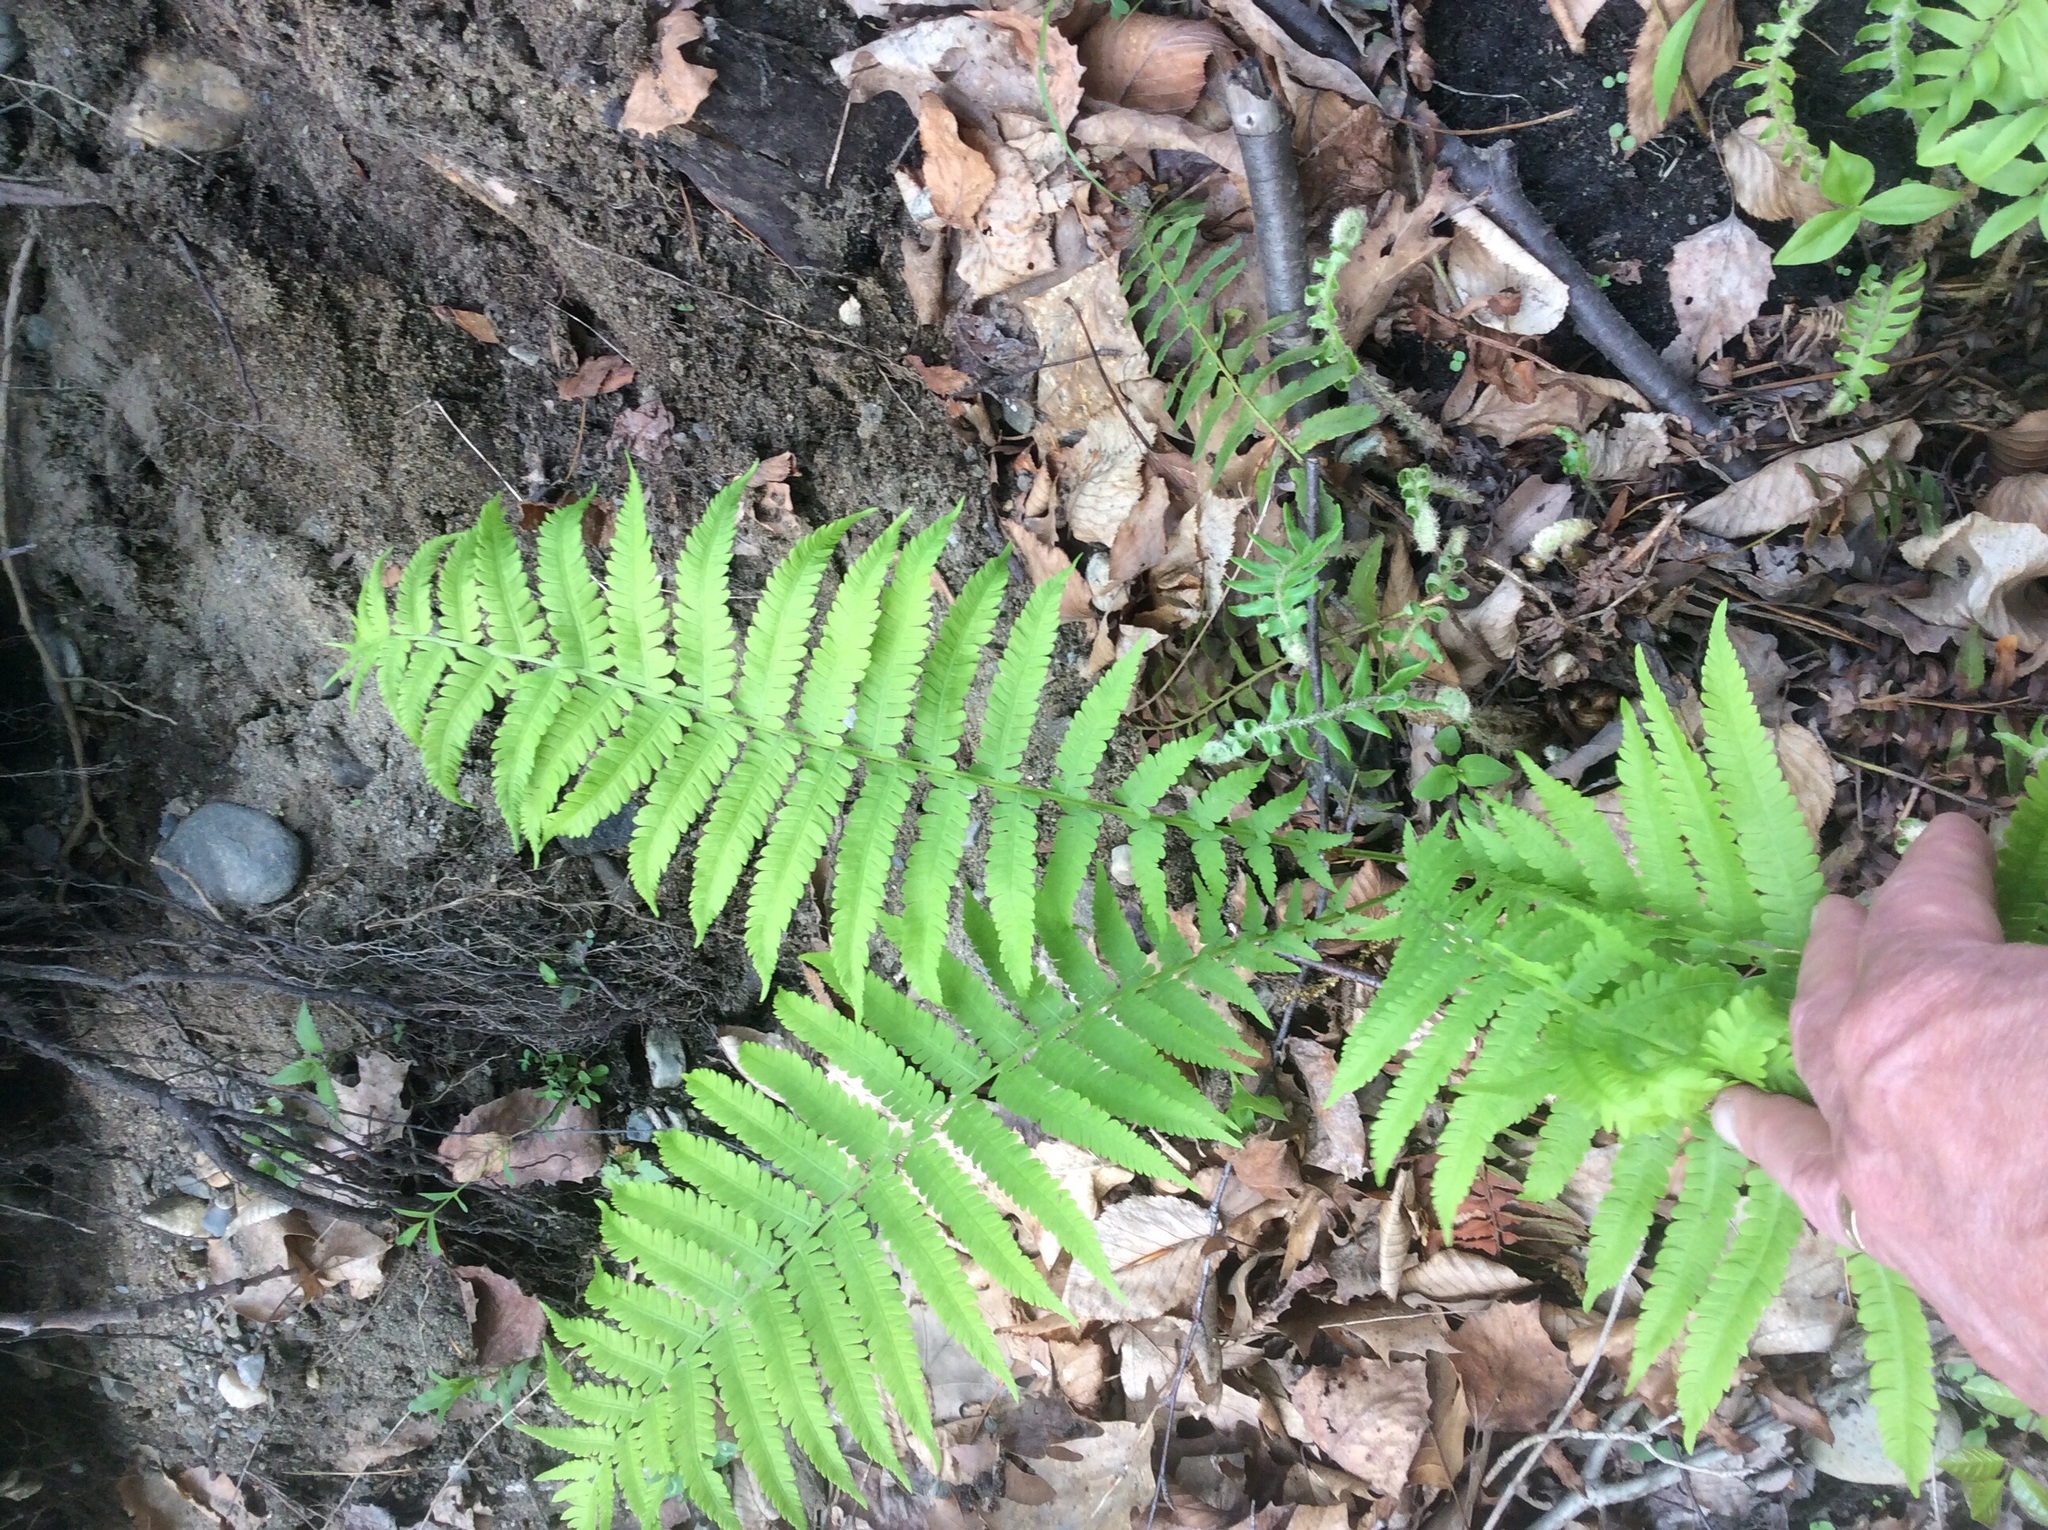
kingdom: Plantae
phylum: Tracheophyta
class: Polypodiopsida
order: Polypodiales
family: Thelypteridaceae
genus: Amauropelta
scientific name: Amauropelta noveboracensis
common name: New york fern
